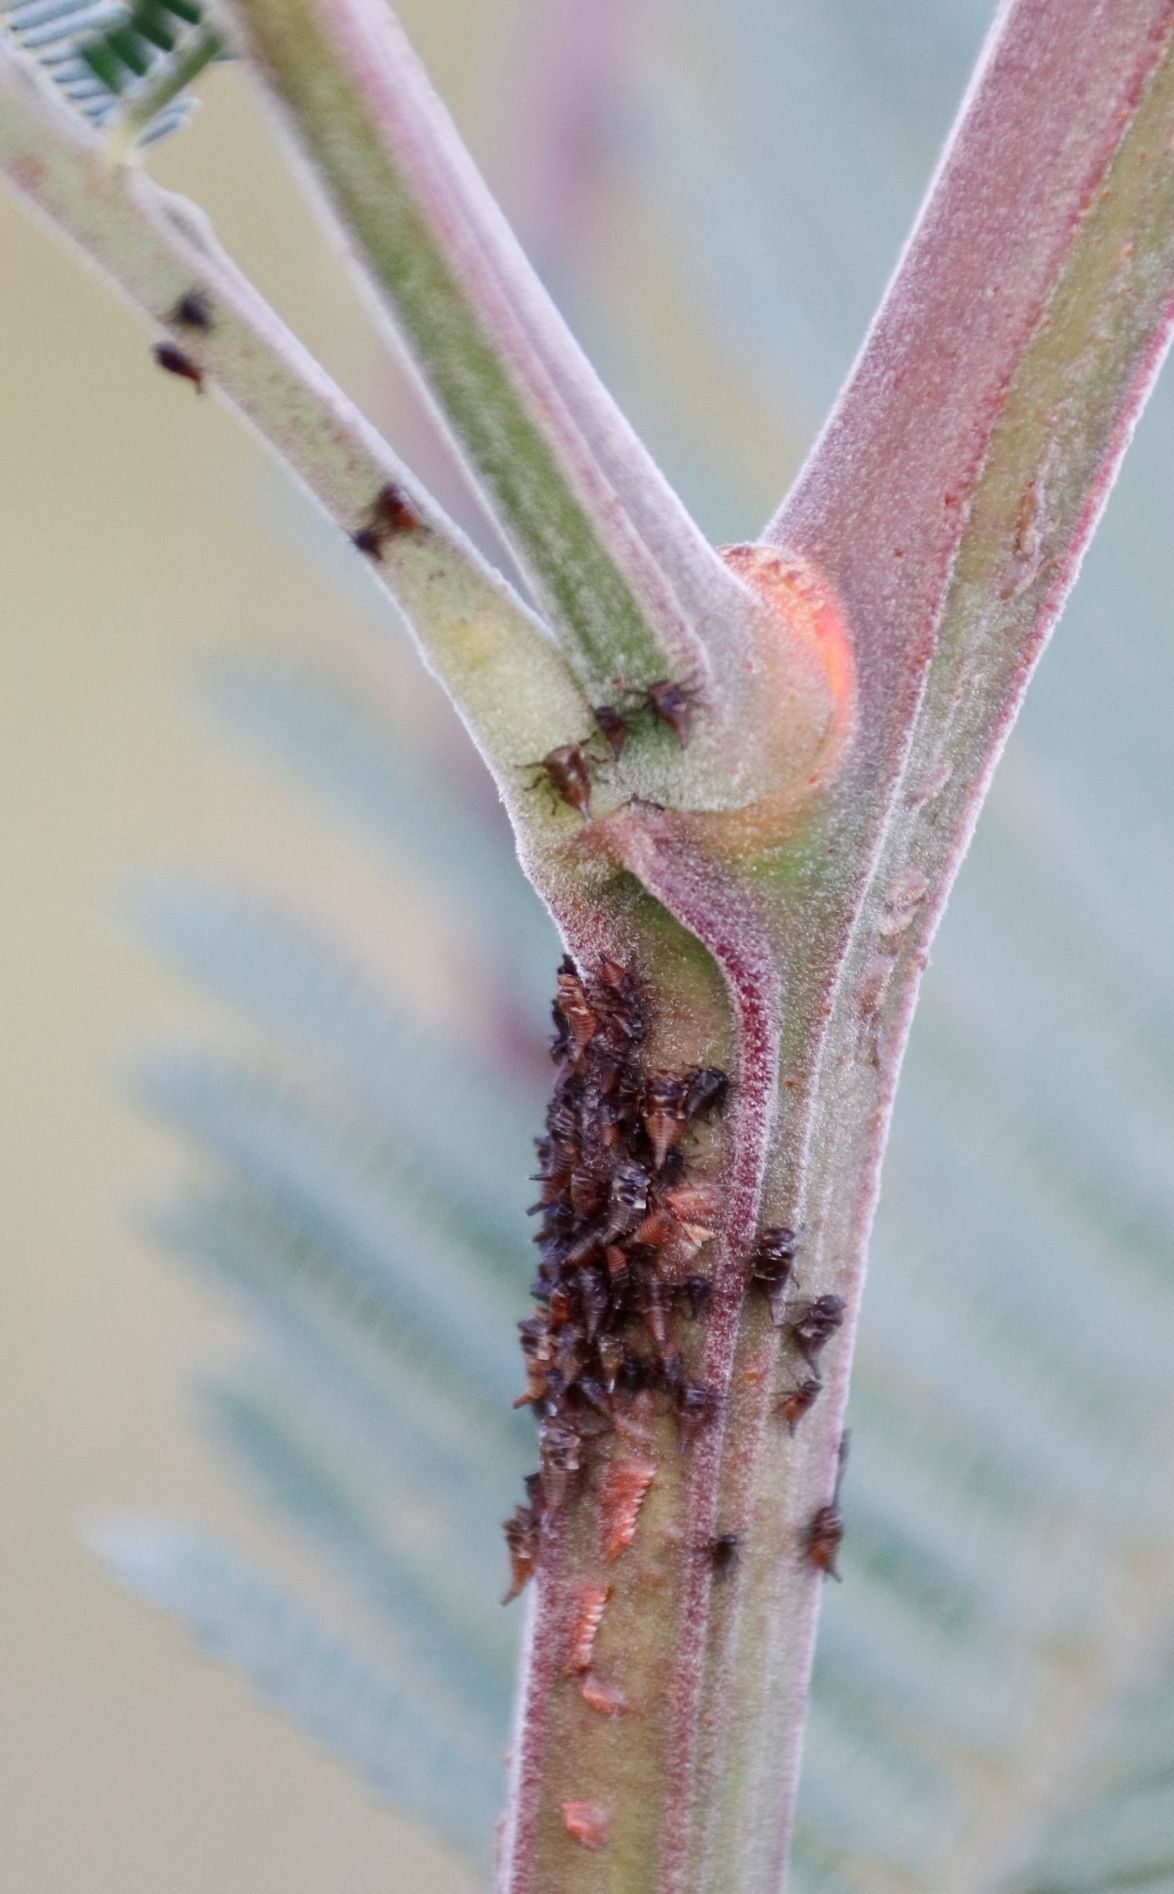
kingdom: Plantae
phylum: Tracheophyta
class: Magnoliopsida
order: Fabales
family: Fabaceae
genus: Acacia
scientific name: Acacia mearnsii
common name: Black wattle
